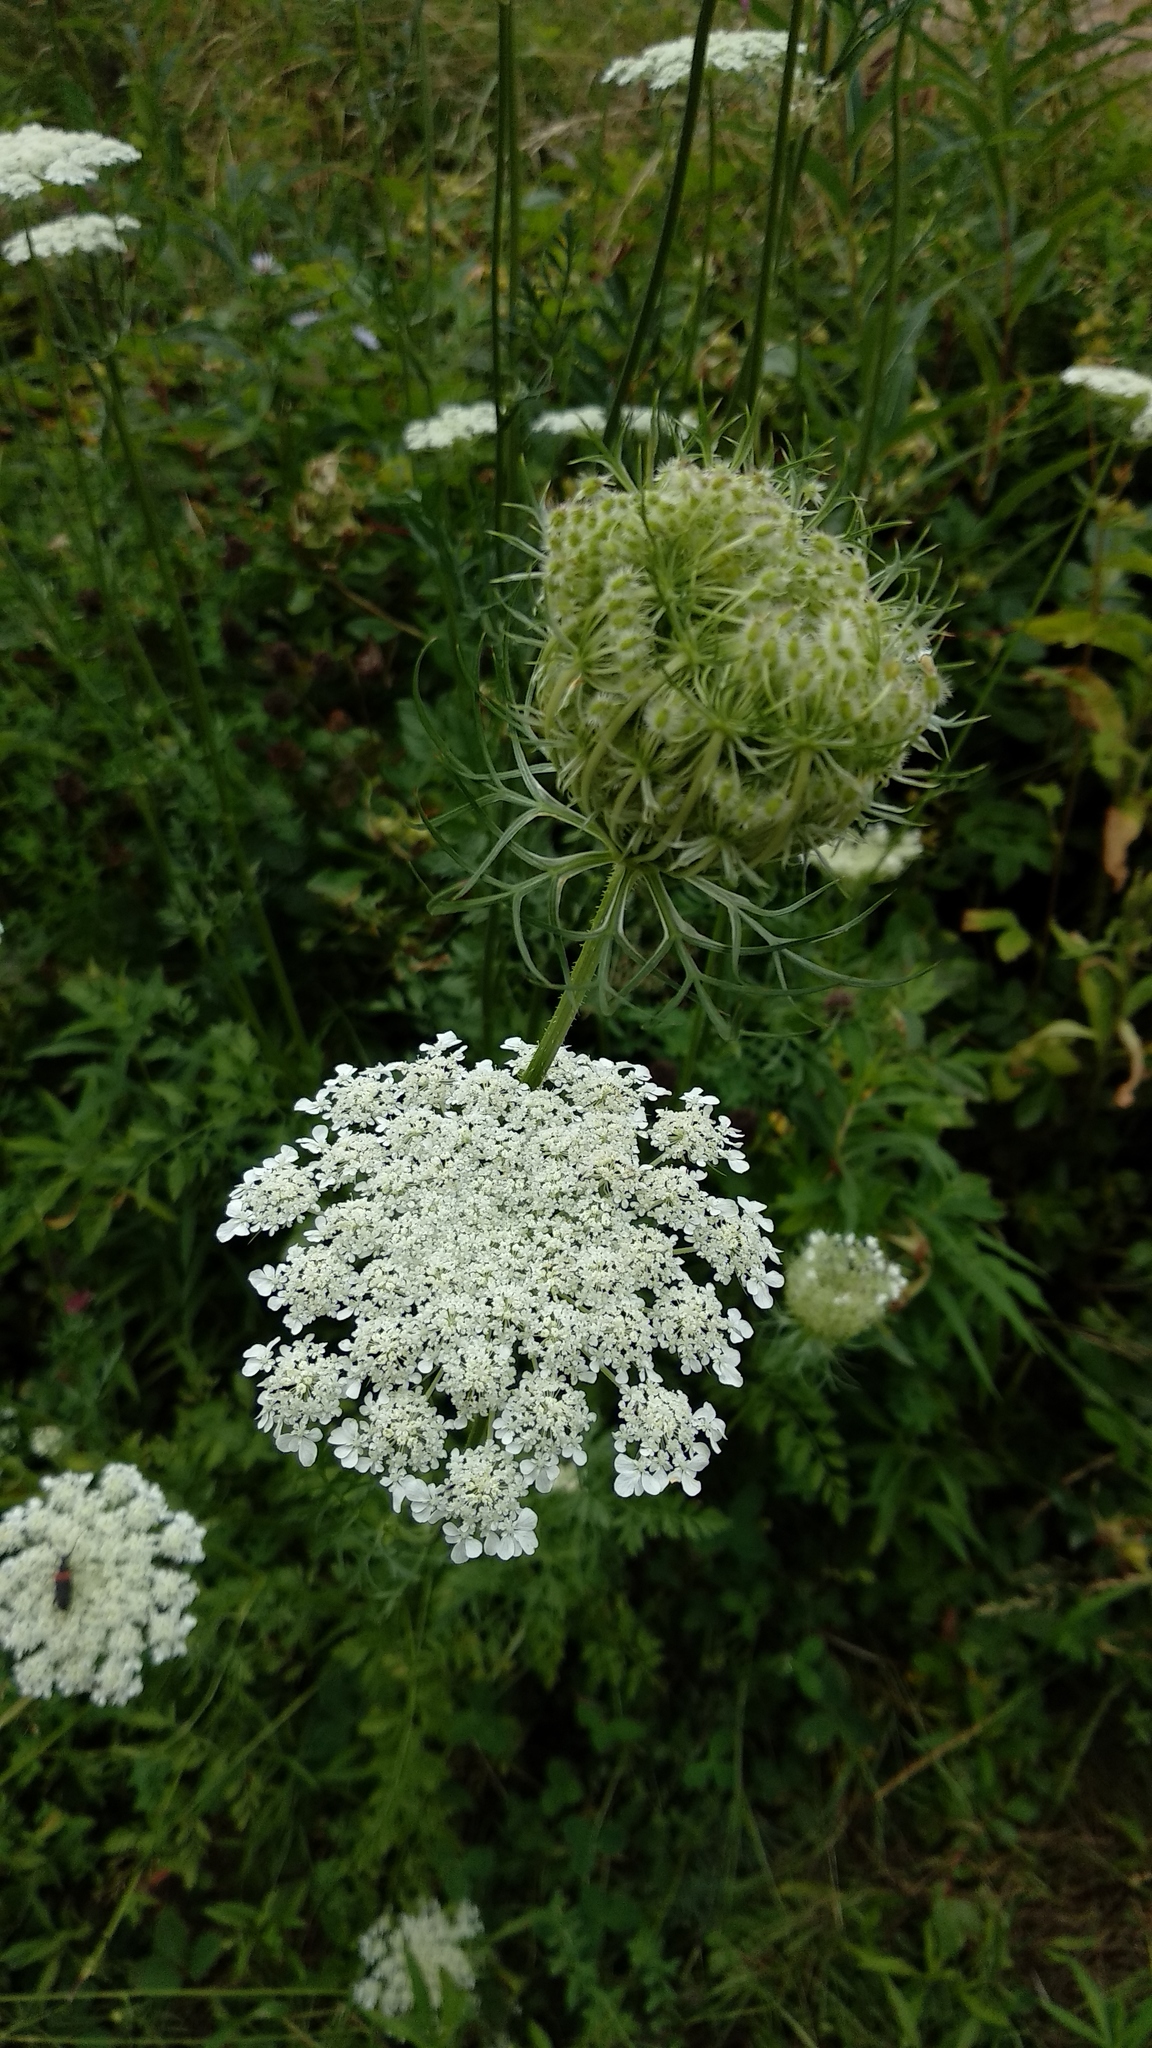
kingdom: Plantae
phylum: Tracheophyta
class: Magnoliopsida
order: Apiales
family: Apiaceae
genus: Daucus
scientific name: Daucus carota
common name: Wild carrot
